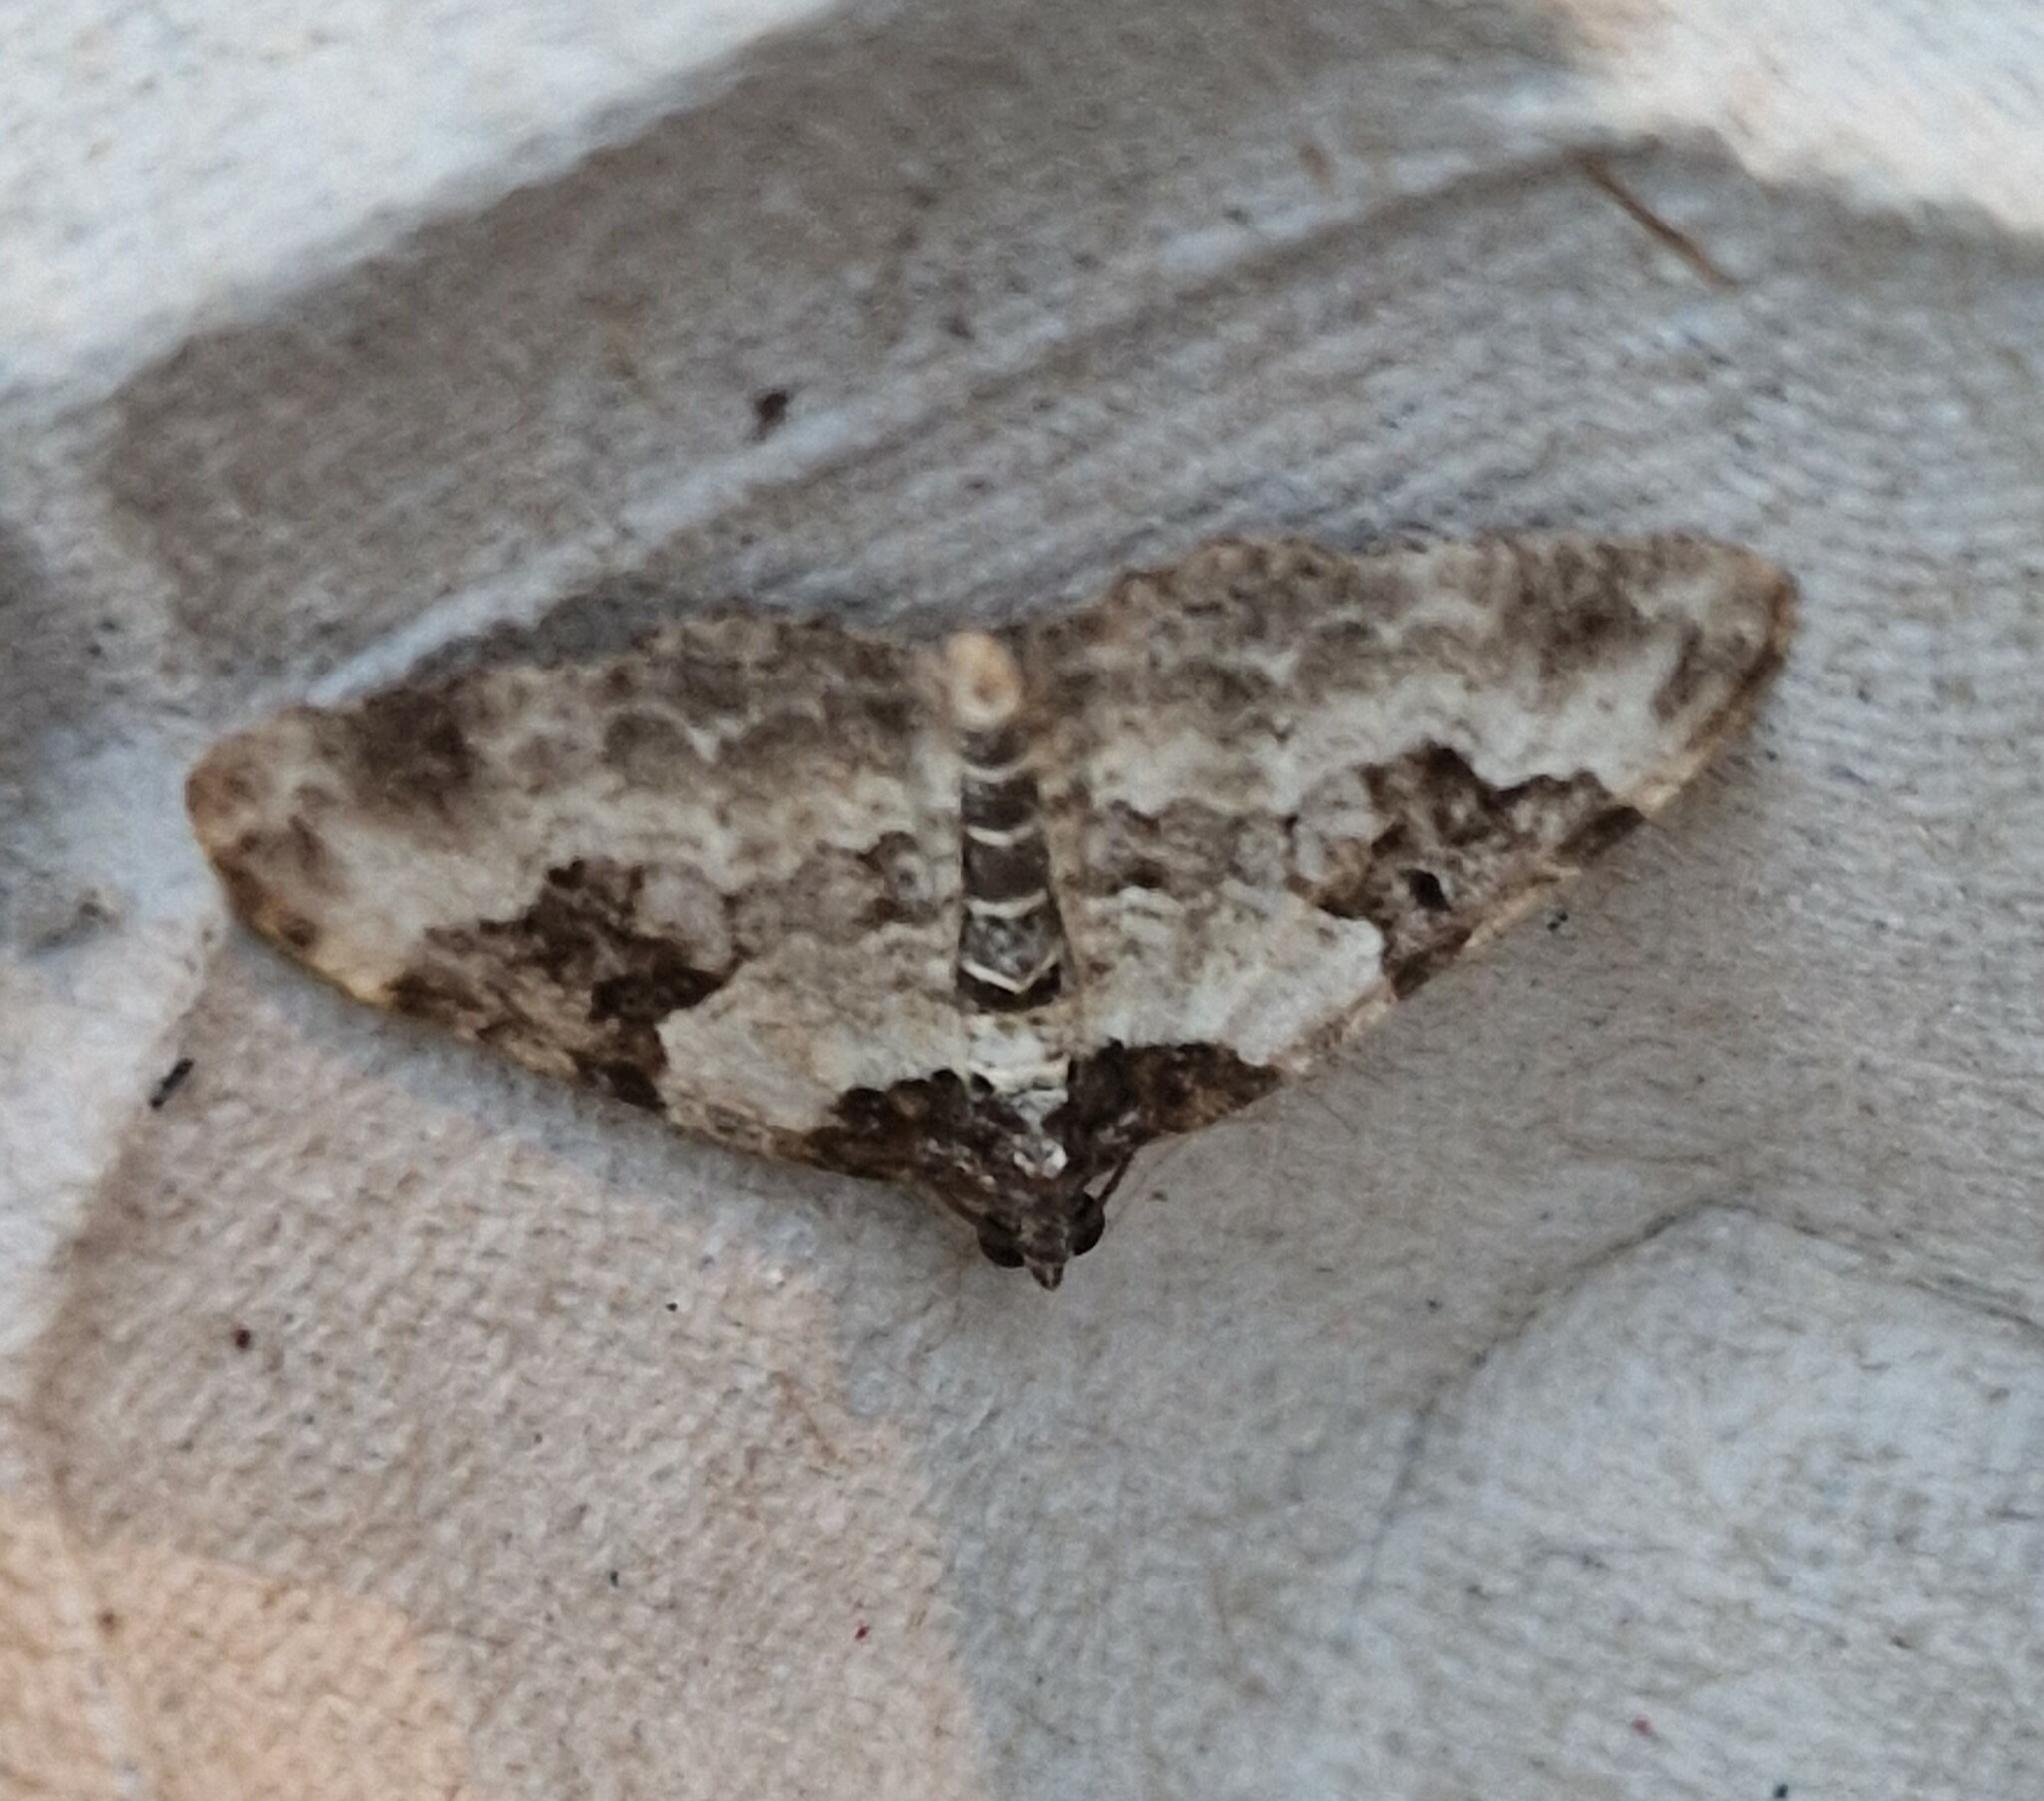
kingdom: Animalia
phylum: Arthropoda
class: Insecta
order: Lepidoptera
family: Geometridae
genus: Xanthorhoe
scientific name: Xanthorhoe fluctuata
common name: Garden carpet
